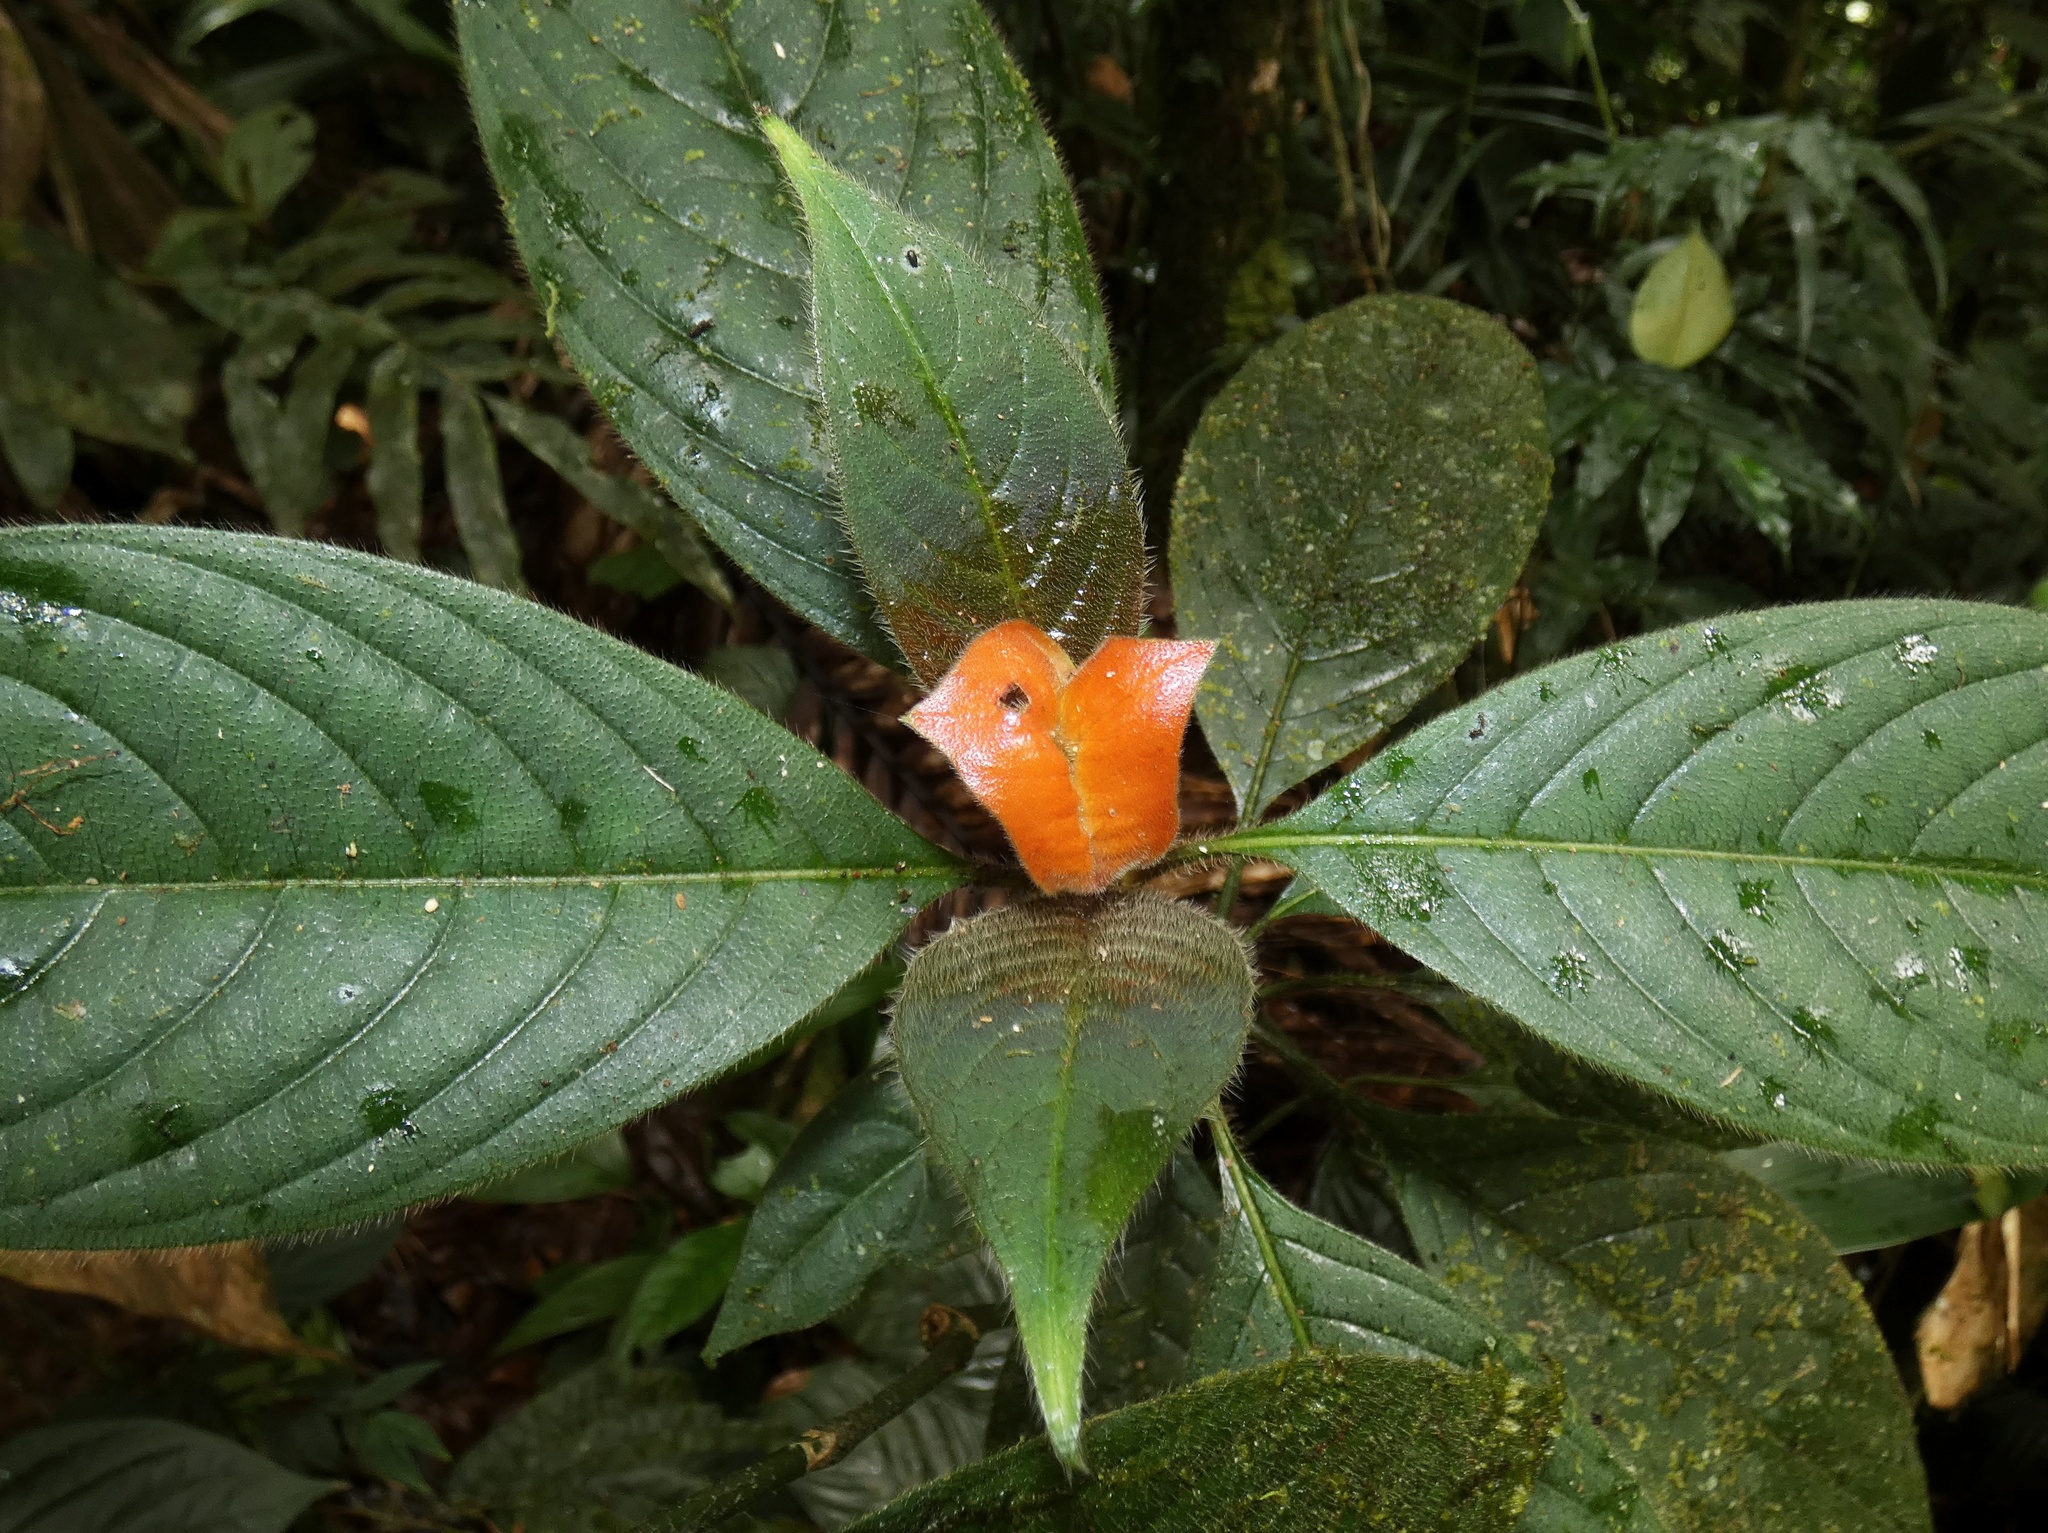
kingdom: Plantae
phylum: Tracheophyta
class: Magnoliopsida
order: Gentianales
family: Rubiaceae
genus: Palicourea
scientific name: Palicourea tomentosa
